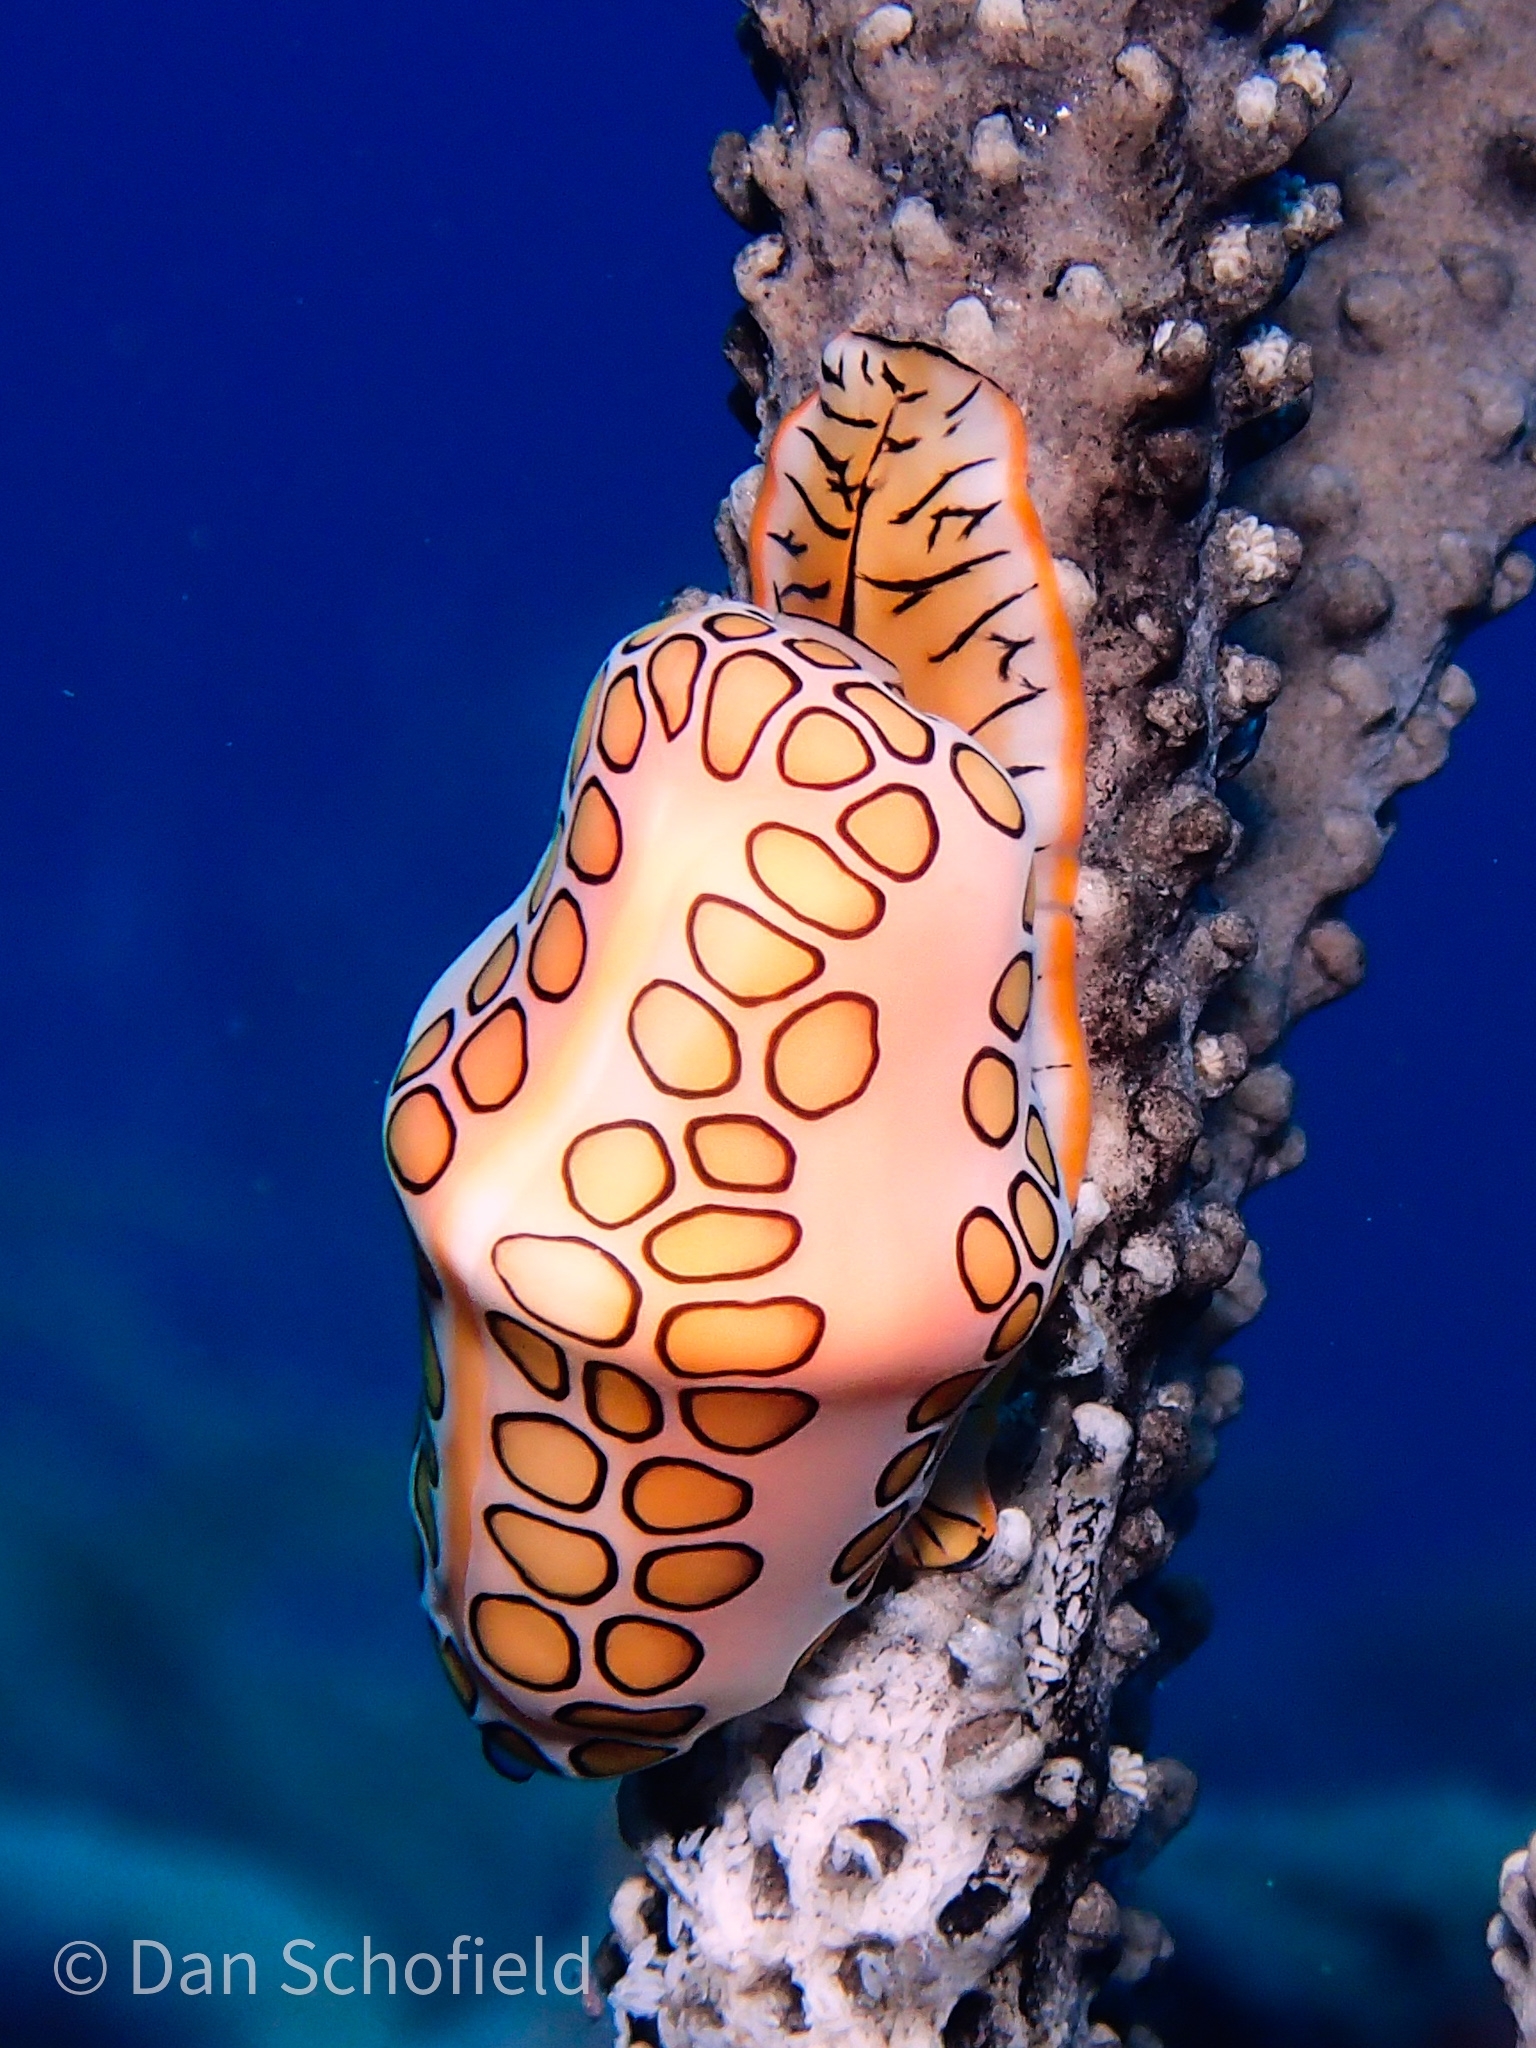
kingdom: Animalia
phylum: Mollusca
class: Gastropoda
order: Littorinimorpha
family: Ovulidae
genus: Cyphoma
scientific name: Cyphoma gibbosum
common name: Flamingo tongue
